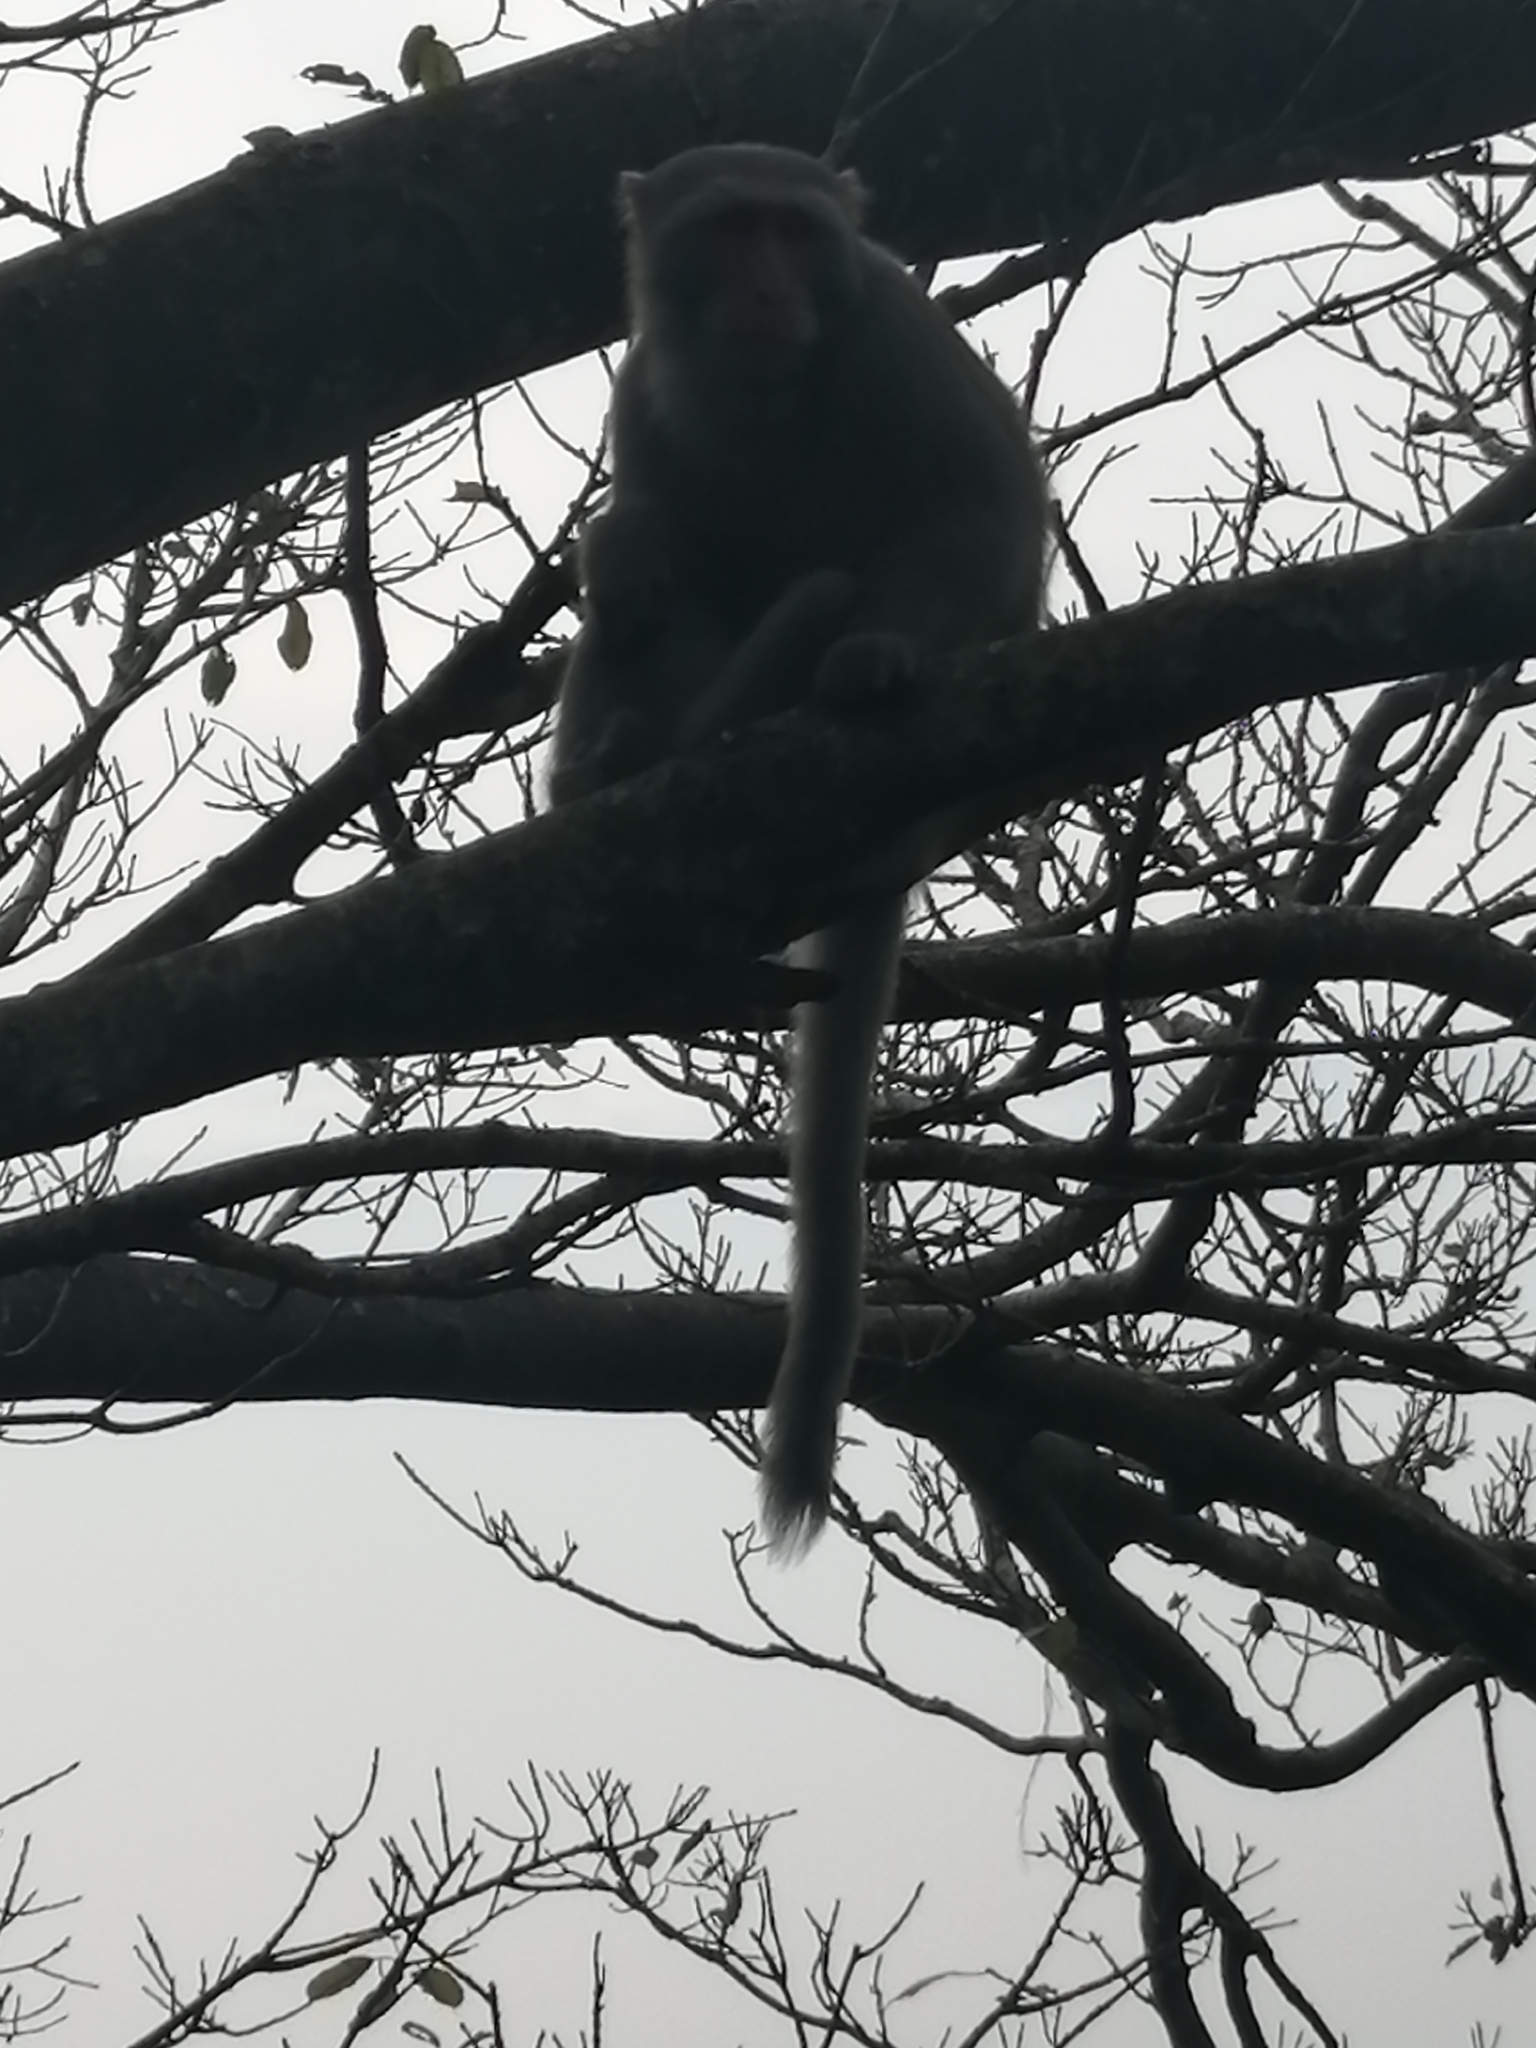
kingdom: Animalia
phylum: Chordata
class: Mammalia
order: Primates
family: Cercopithecidae
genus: Macaca
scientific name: Macaca cyclopis
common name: Formosan rock macaque
